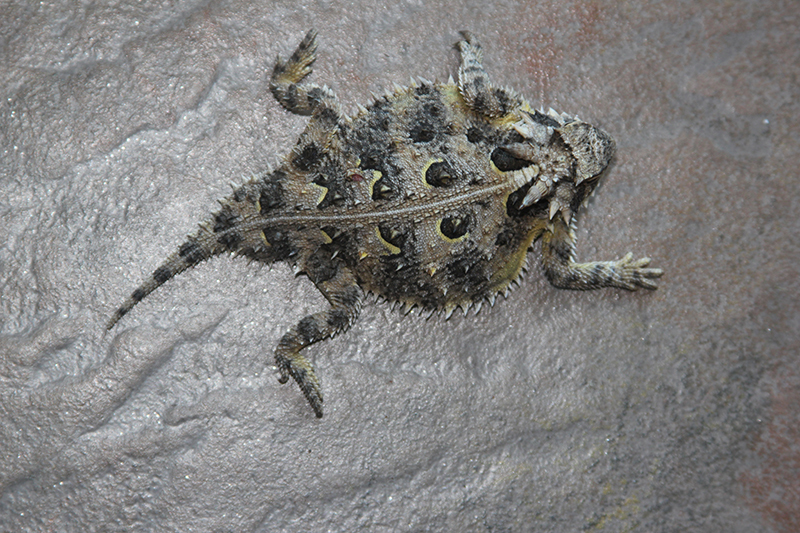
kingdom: Animalia
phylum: Chordata
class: Squamata
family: Phrynosomatidae
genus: Phrynosoma
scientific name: Phrynosoma cornutum
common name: Texas horned lizard
